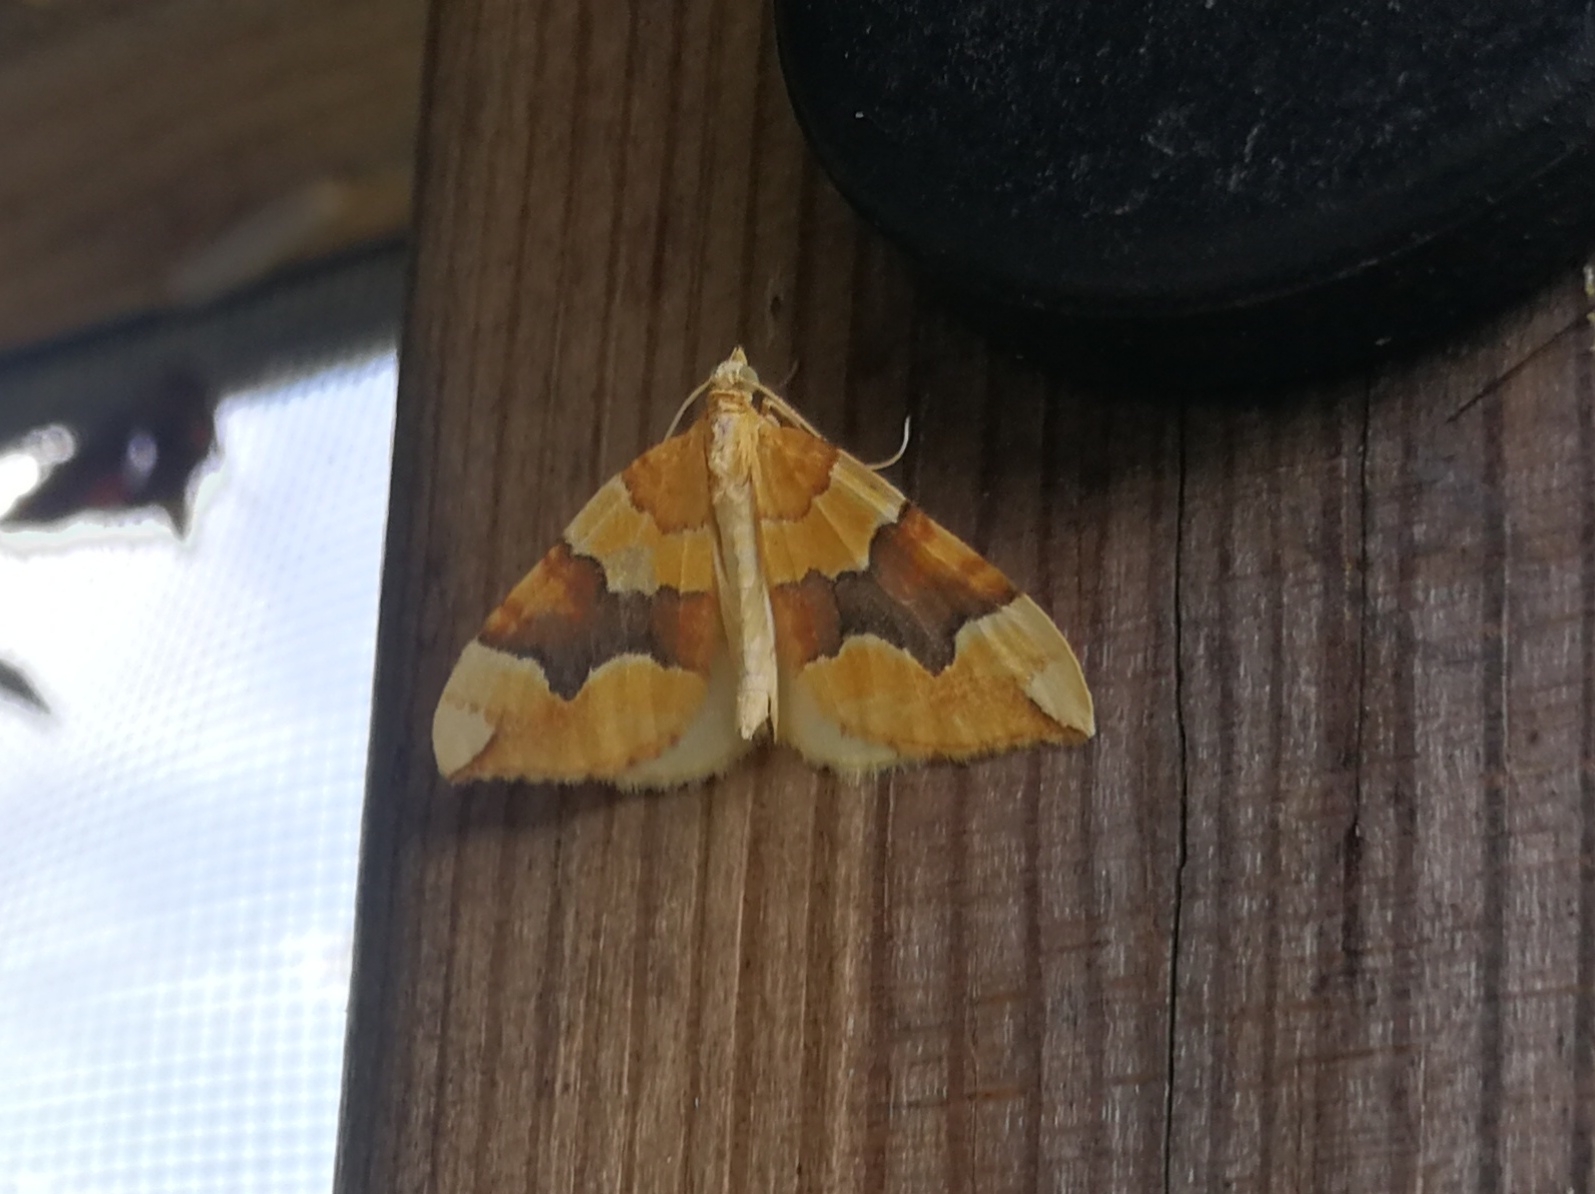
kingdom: Animalia
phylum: Arthropoda
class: Insecta
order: Lepidoptera
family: Geometridae
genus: Cidaria
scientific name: Cidaria fulvata
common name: Barred yellow
